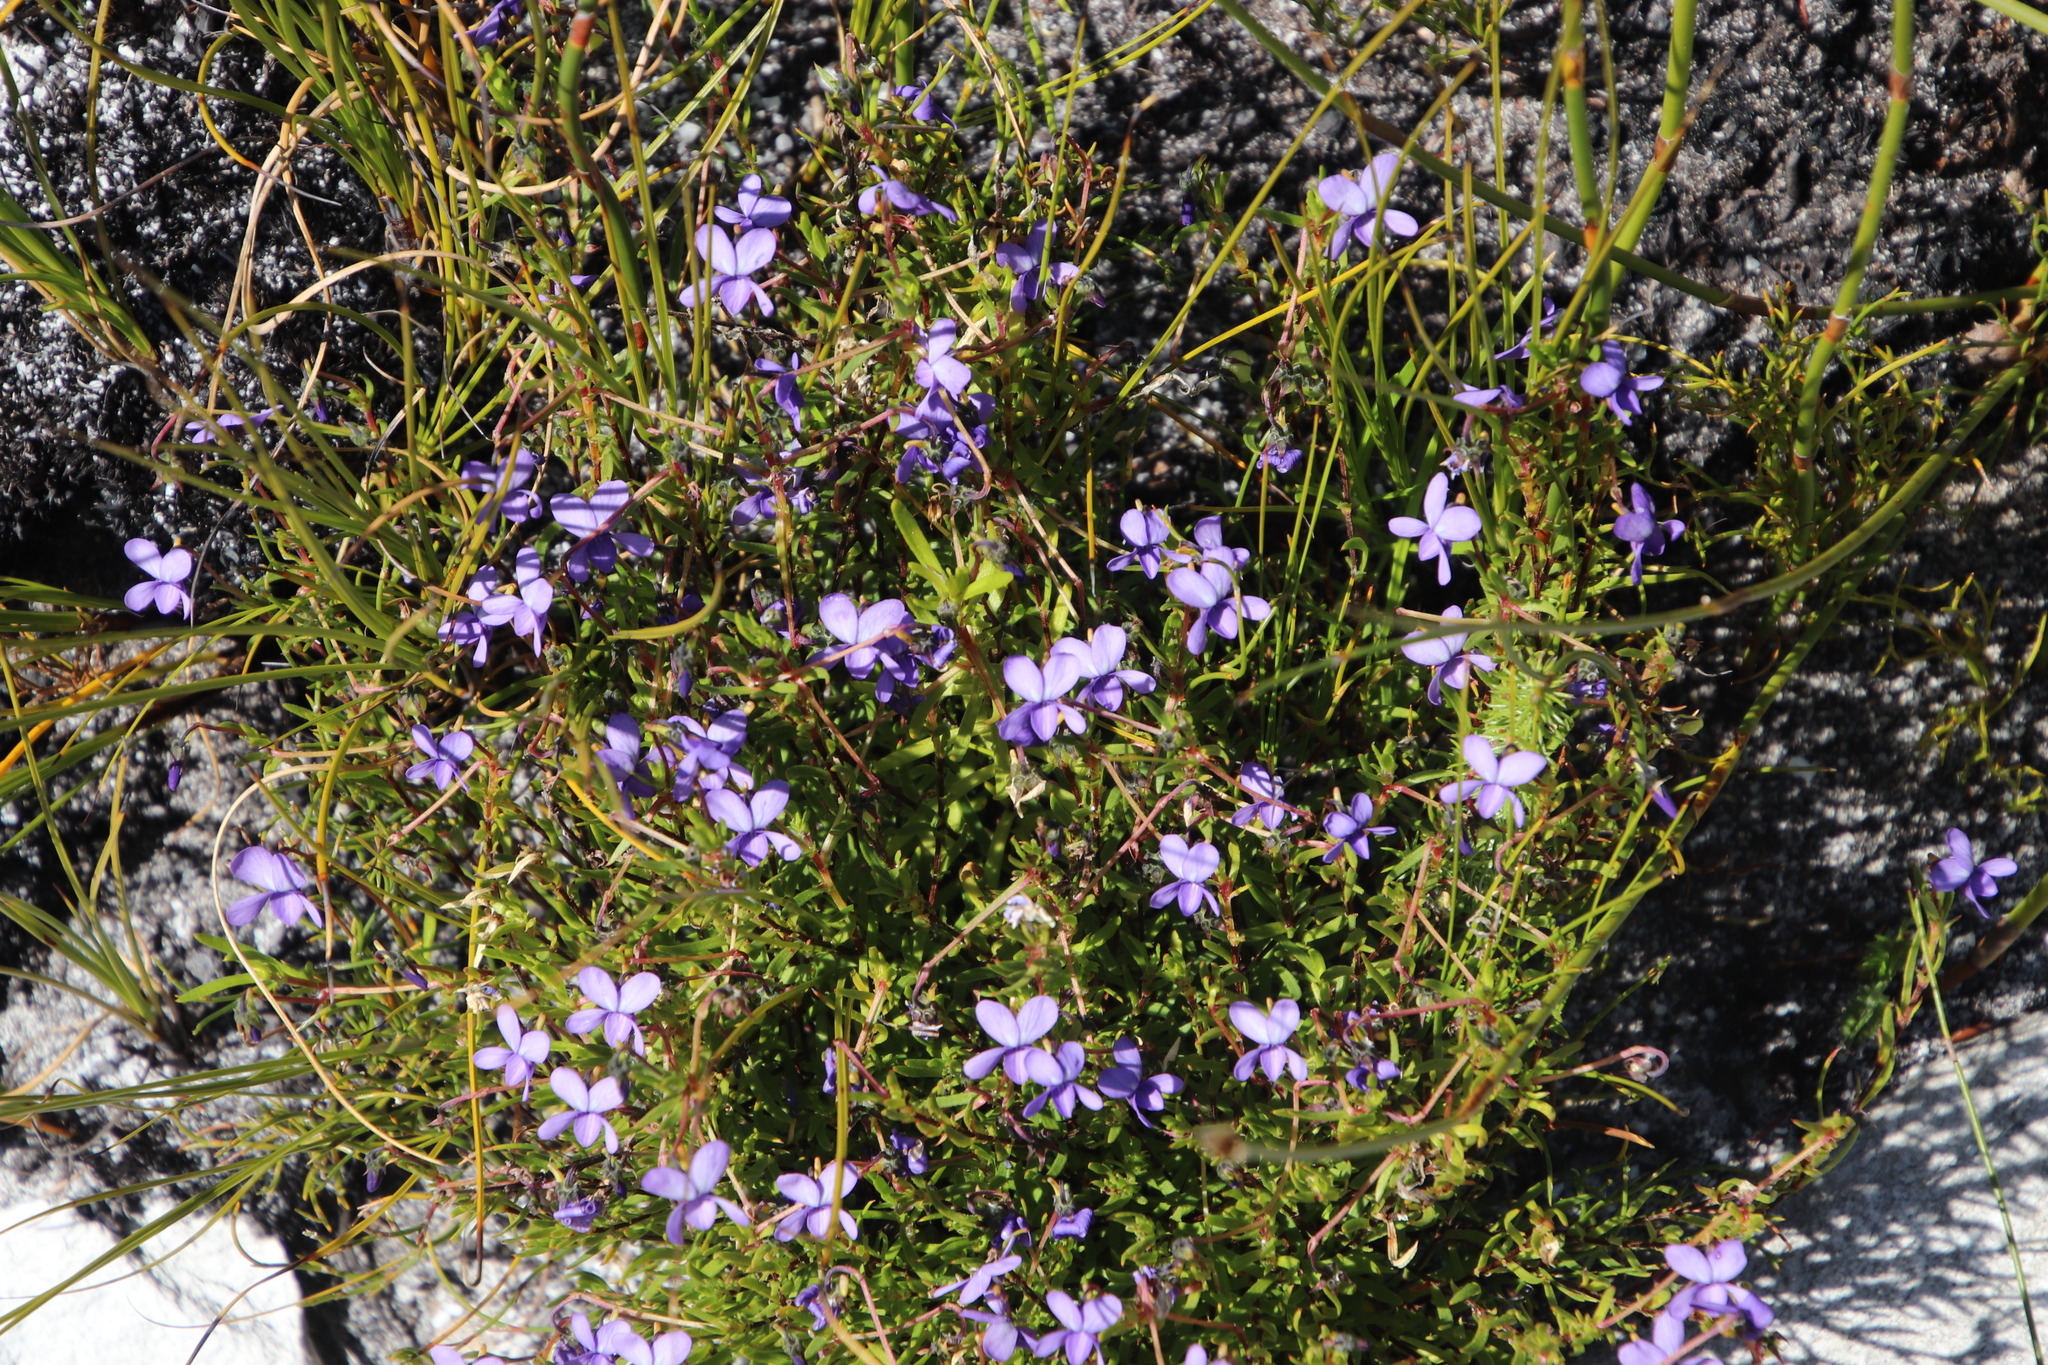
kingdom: Plantae
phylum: Tracheophyta
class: Magnoliopsida
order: Malpighiales
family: Violaceae
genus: Viola
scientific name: Viola decumbens
